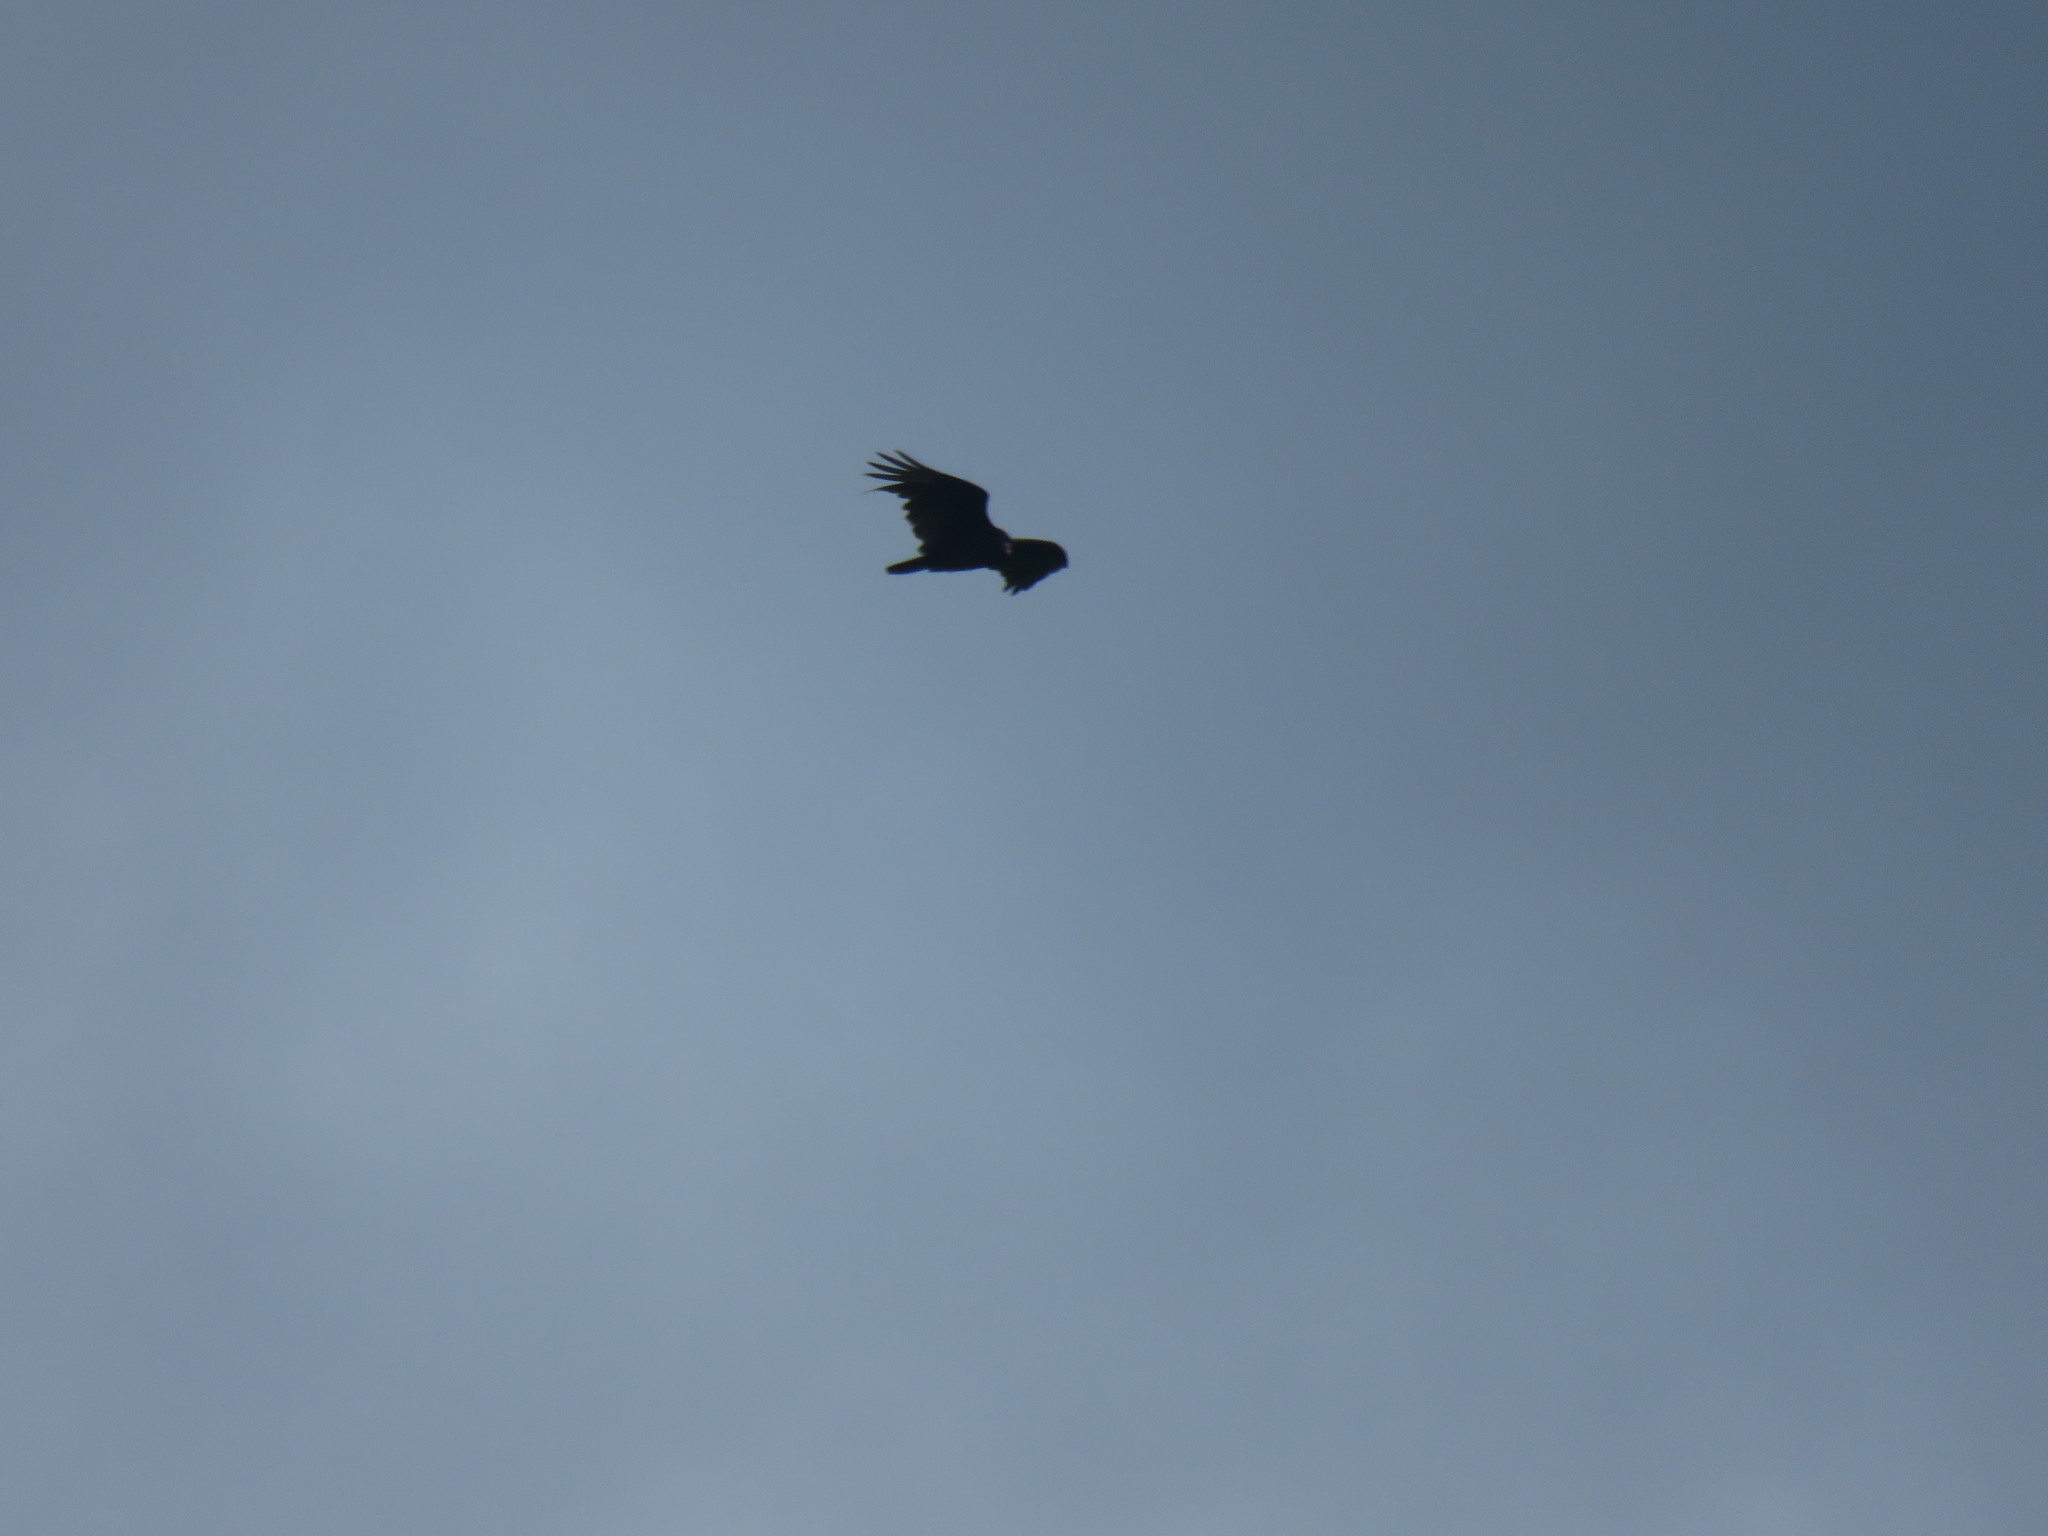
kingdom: Animalia
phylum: Chordata
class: Aves
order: Accipitriformes
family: Cathartidae
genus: Cathartes
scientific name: Cathartes aura
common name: Turkey vulture
